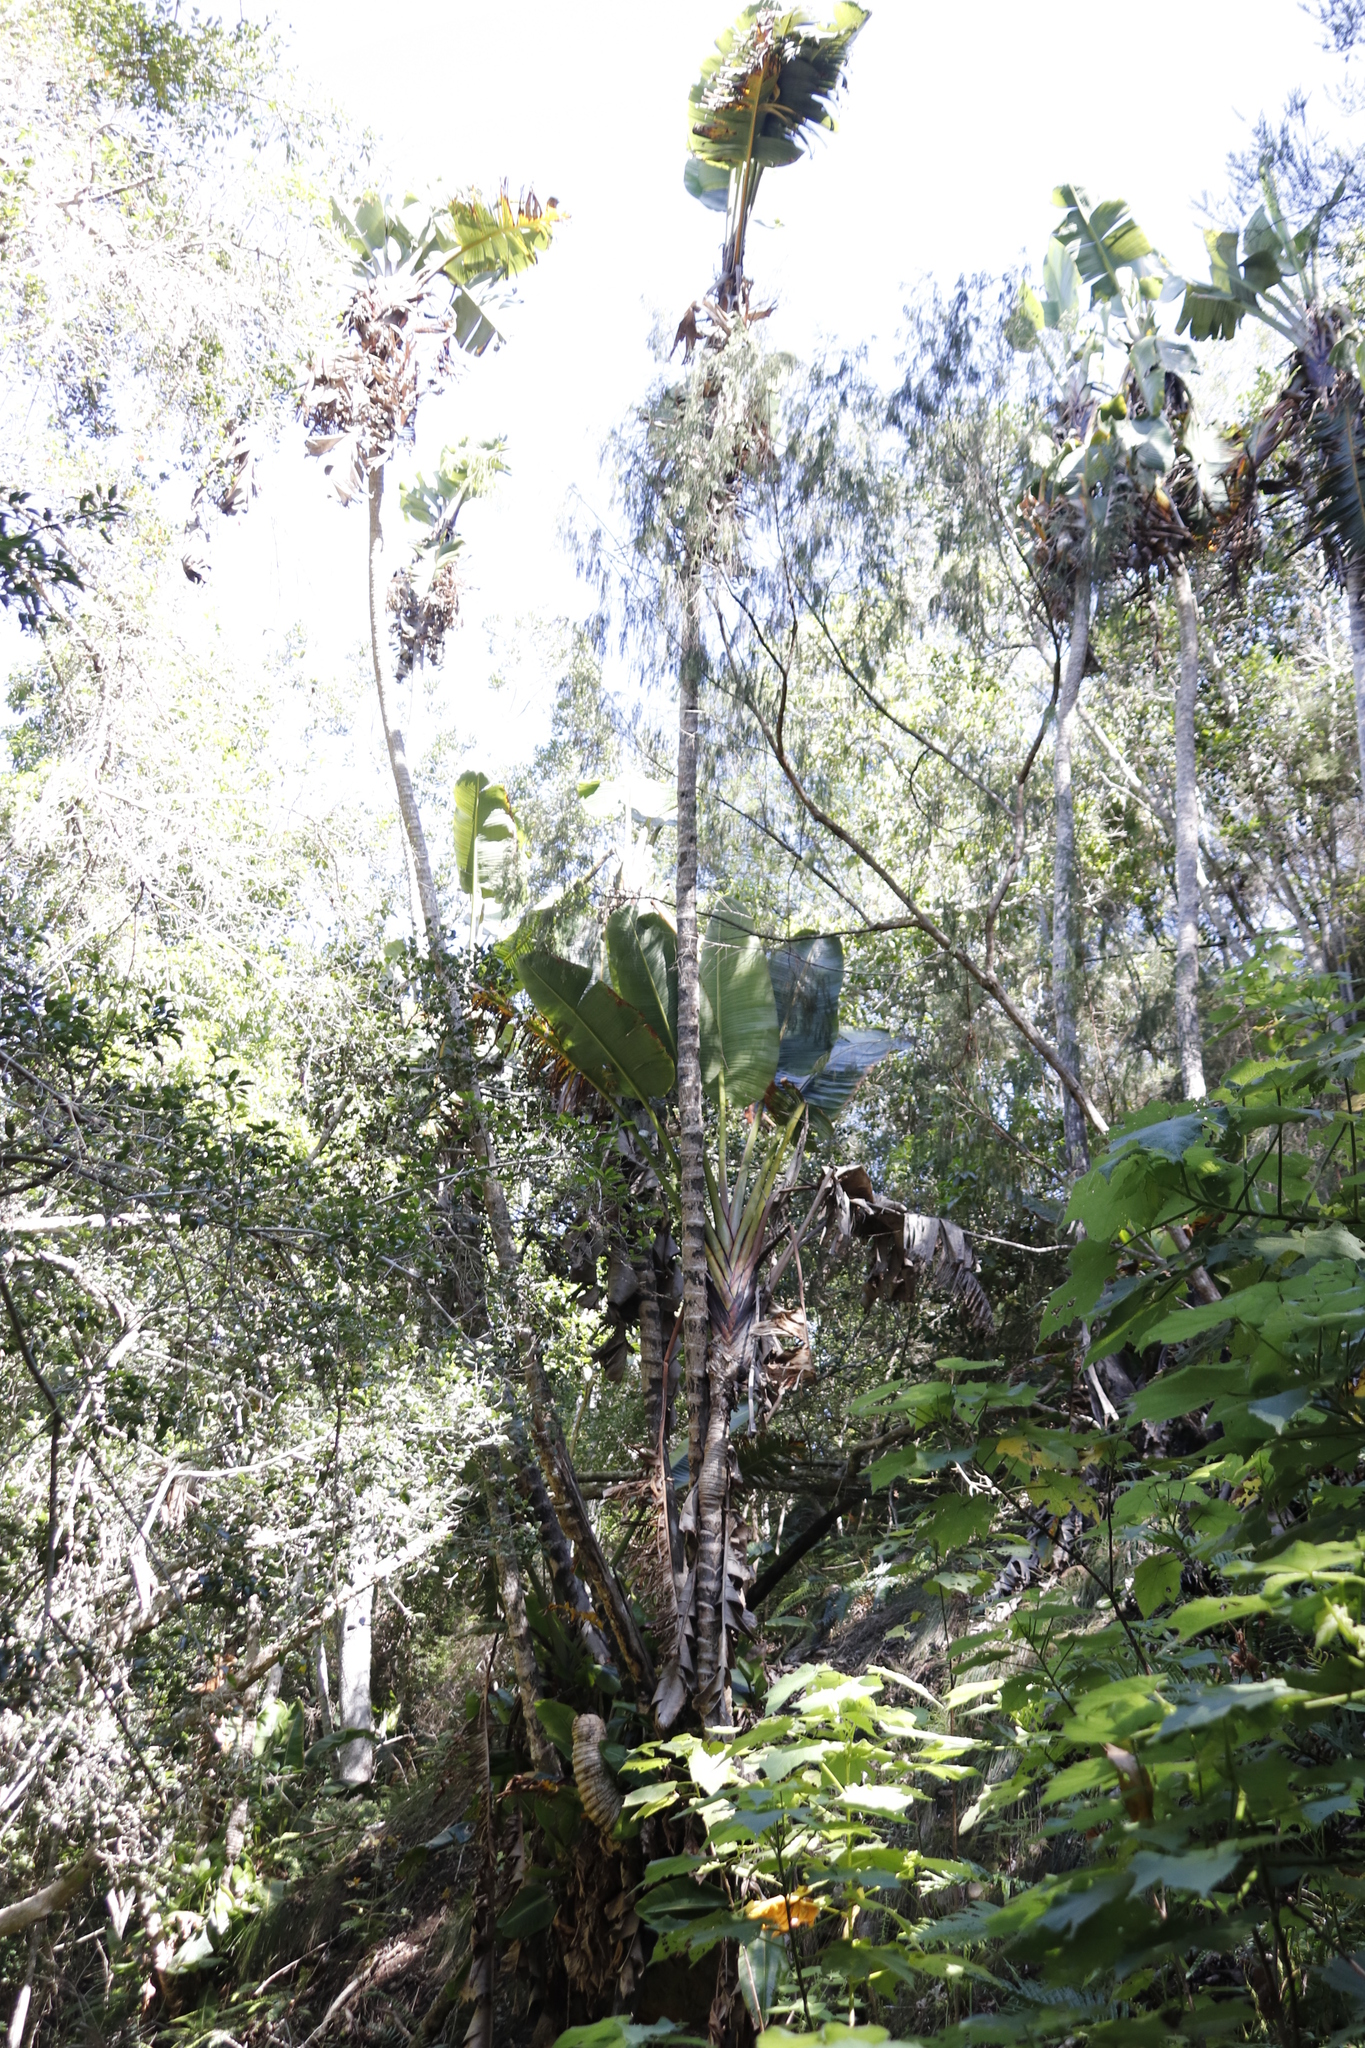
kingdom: Plantae
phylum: Tracheophyta
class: Liliopsida
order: Zingiberales
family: Strelitziaceae
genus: Strelitzia
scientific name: Strelitzia alba
